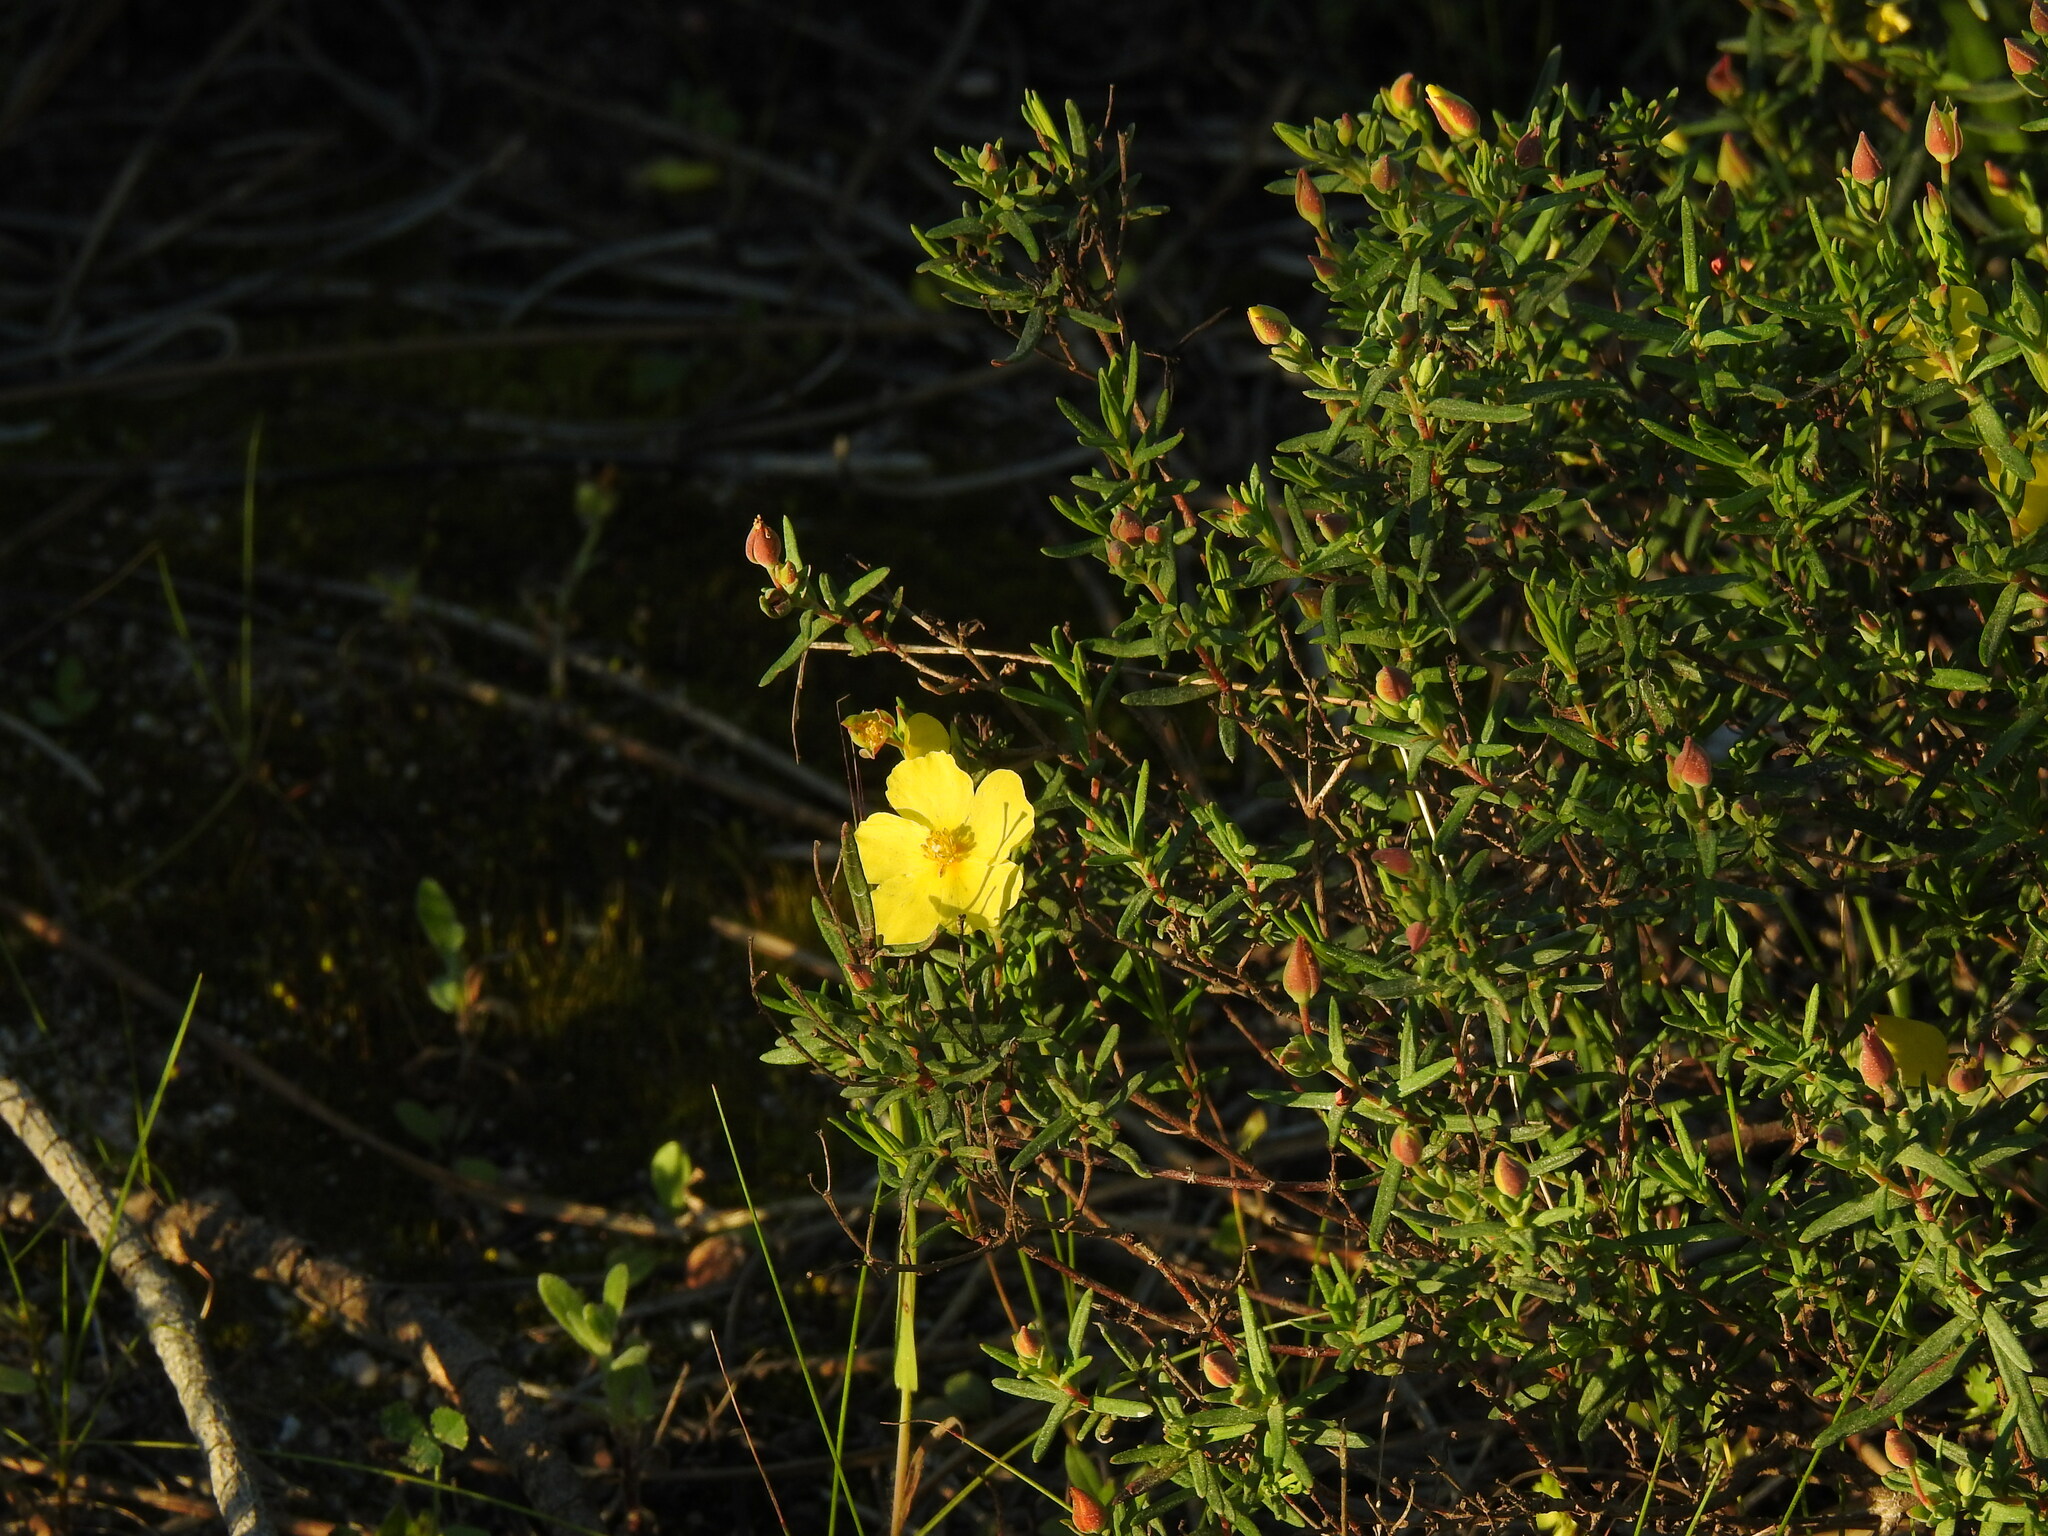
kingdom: Plantae
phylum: Tracheophyta
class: Magnoliopsida
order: Malvales
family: Cistaceae
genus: Halimium
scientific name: Halimium calycinum
